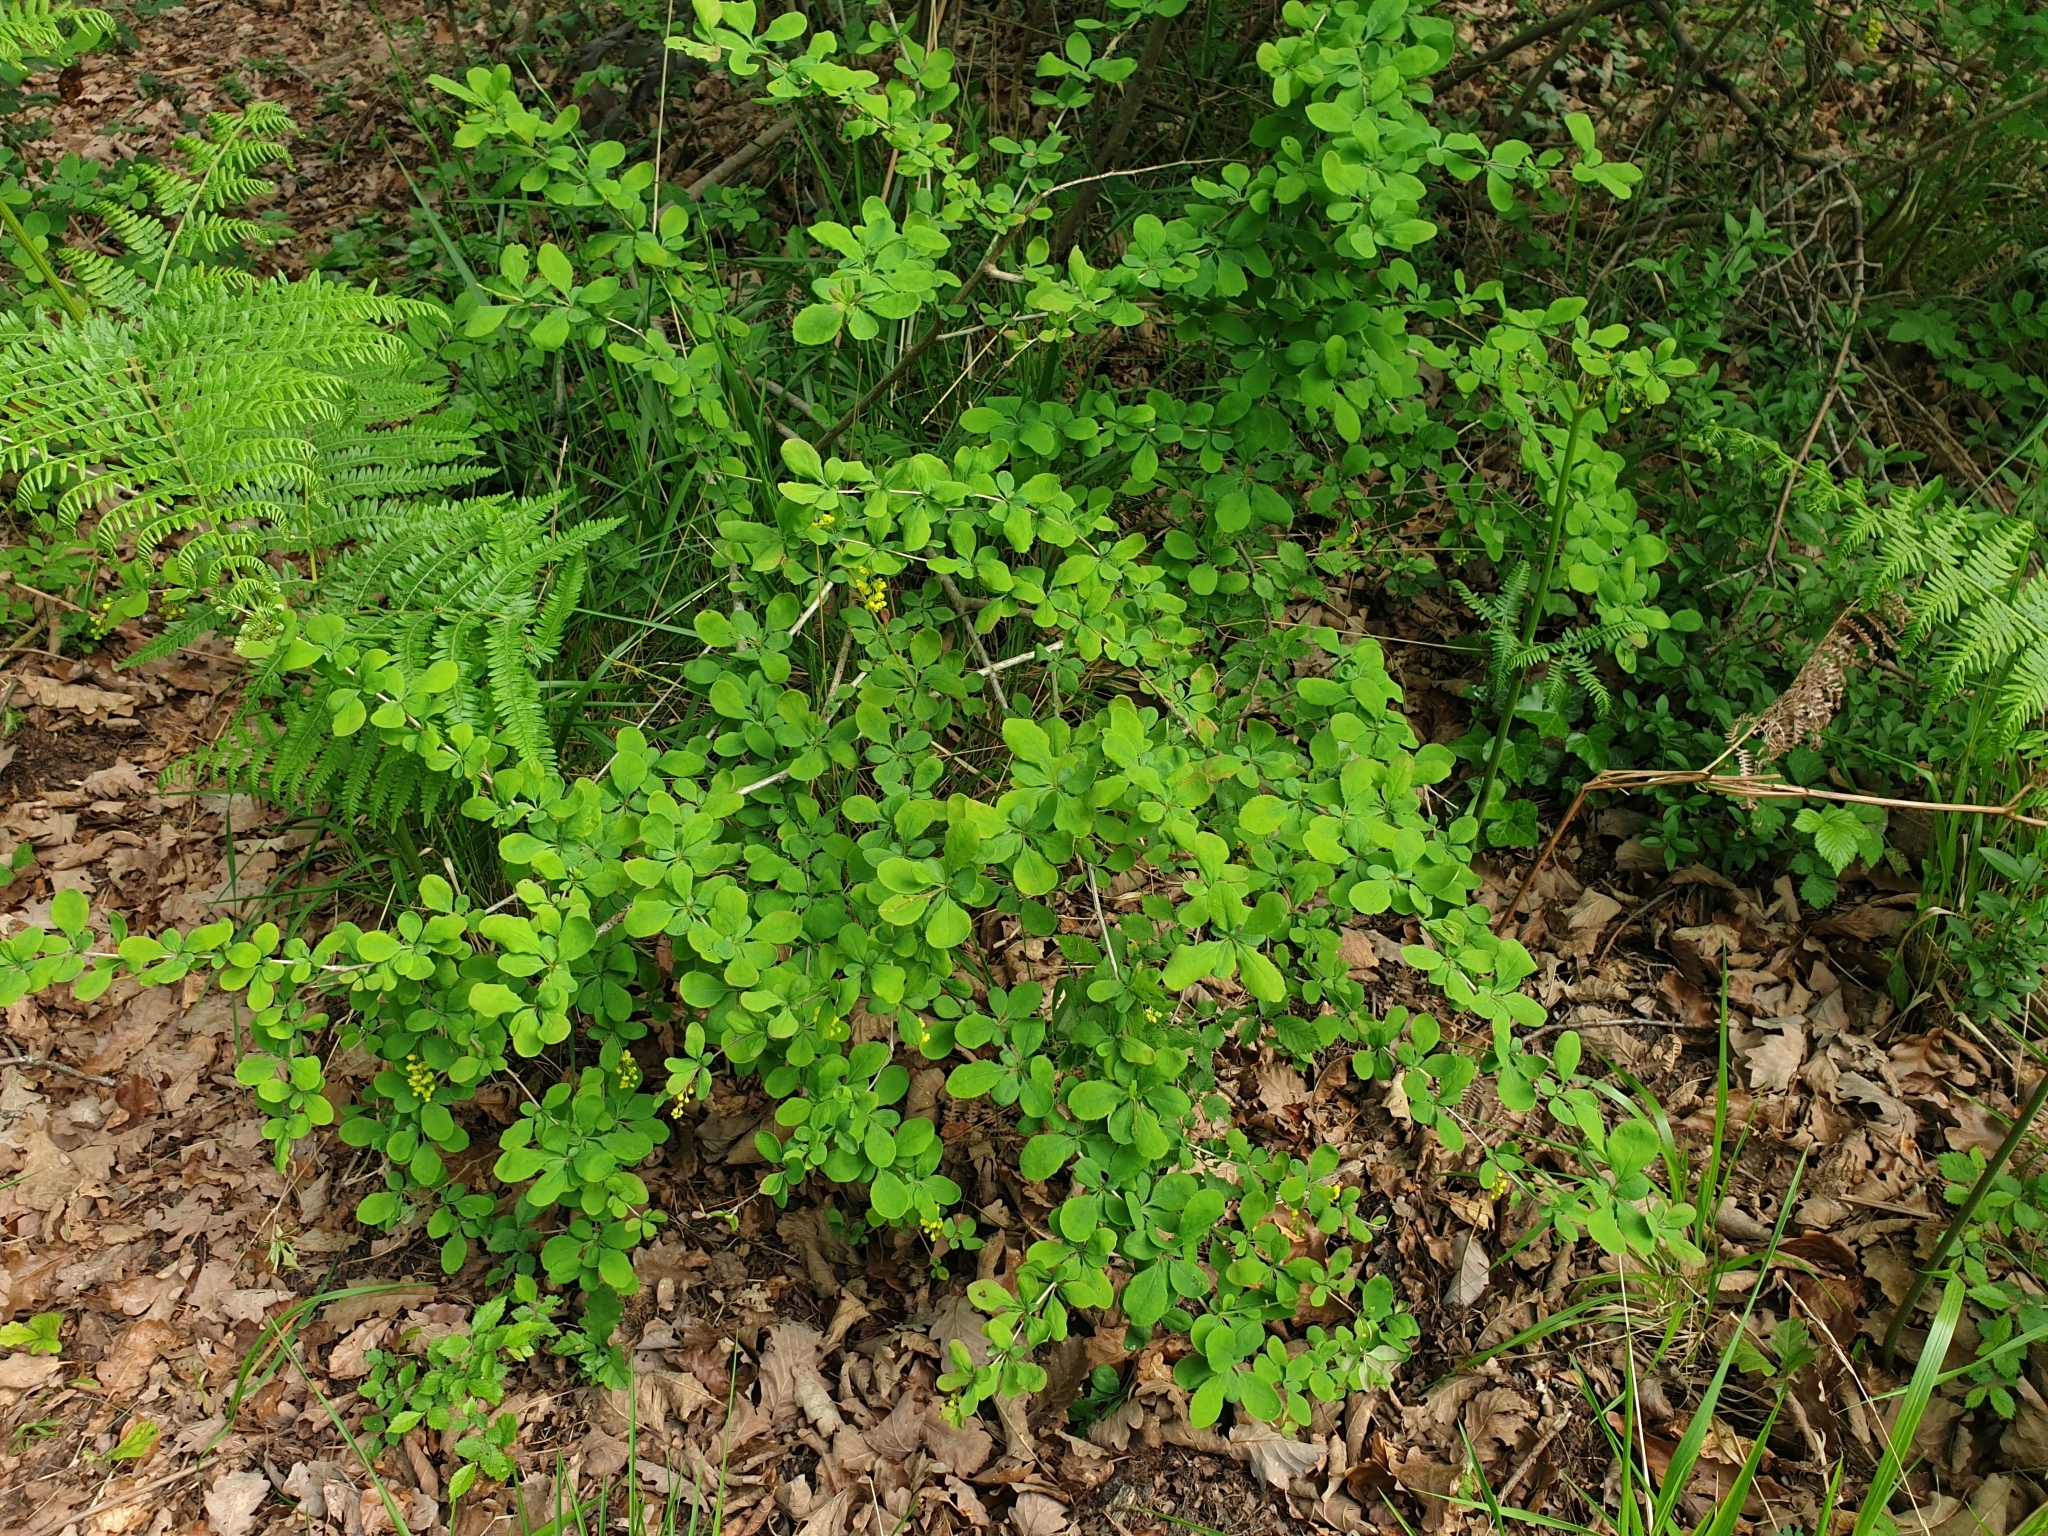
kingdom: Plantae
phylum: Tracheophyta
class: Magnoliopsida
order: Ranunculales
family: Berberidaceae
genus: Berberis
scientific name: Berberis vulgaris
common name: Barberry
